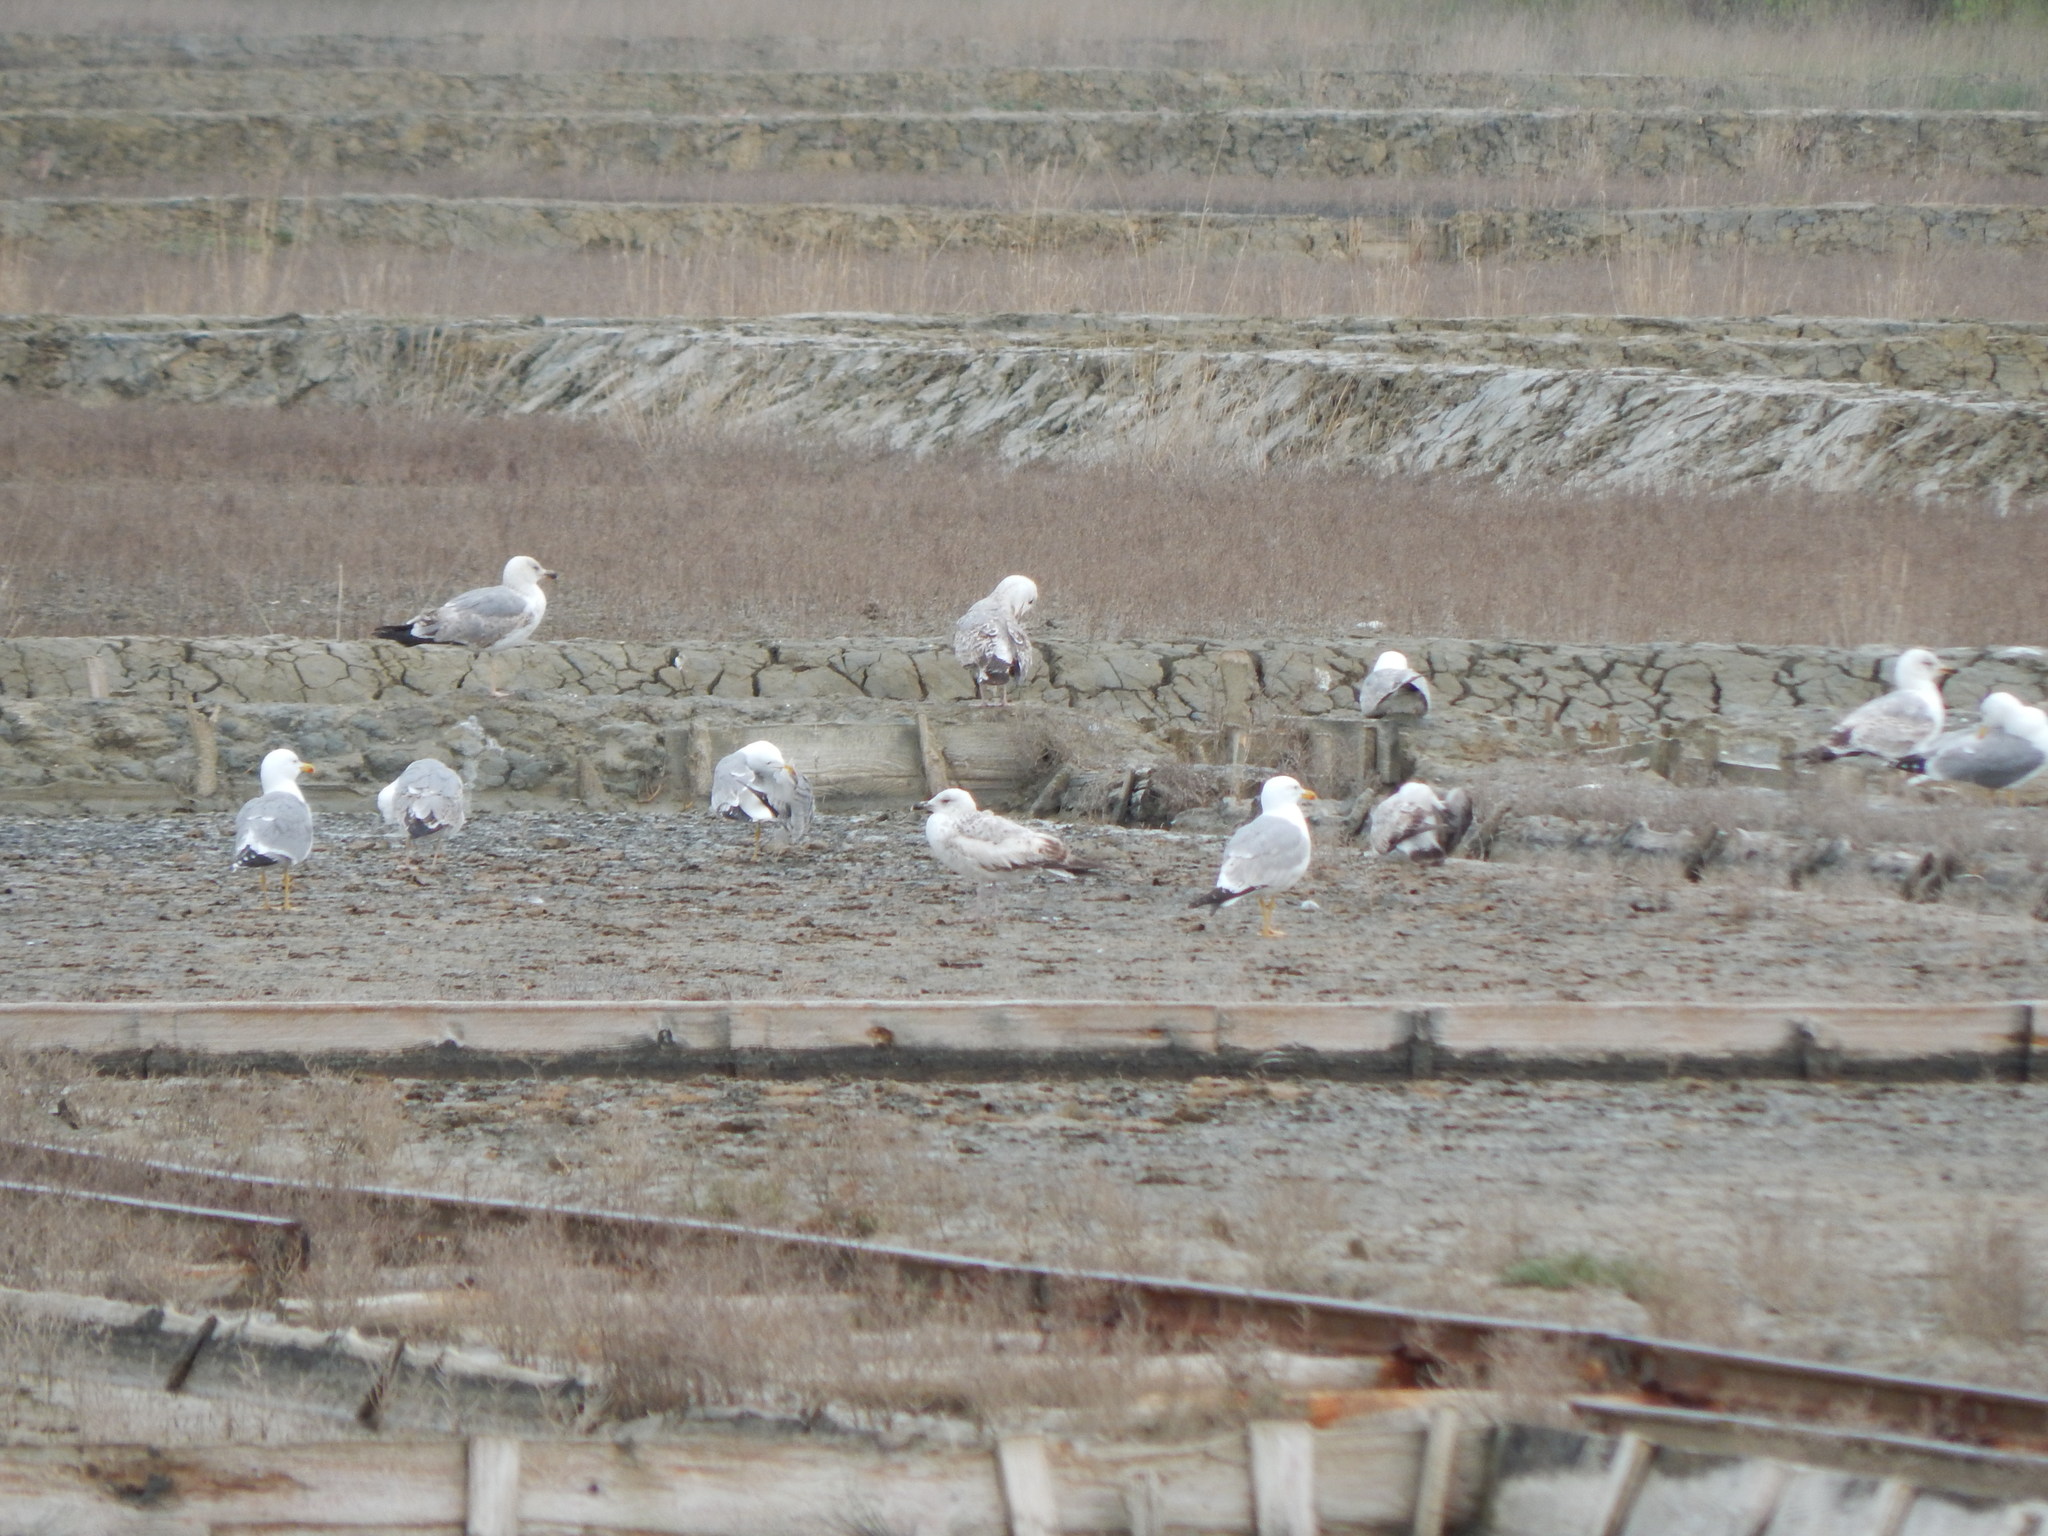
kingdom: Animalia
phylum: Chordata
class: Aves
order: Charadriiformes
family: Laridae
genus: Larus
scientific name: Larus michahellis
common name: Yellow-legged gull
